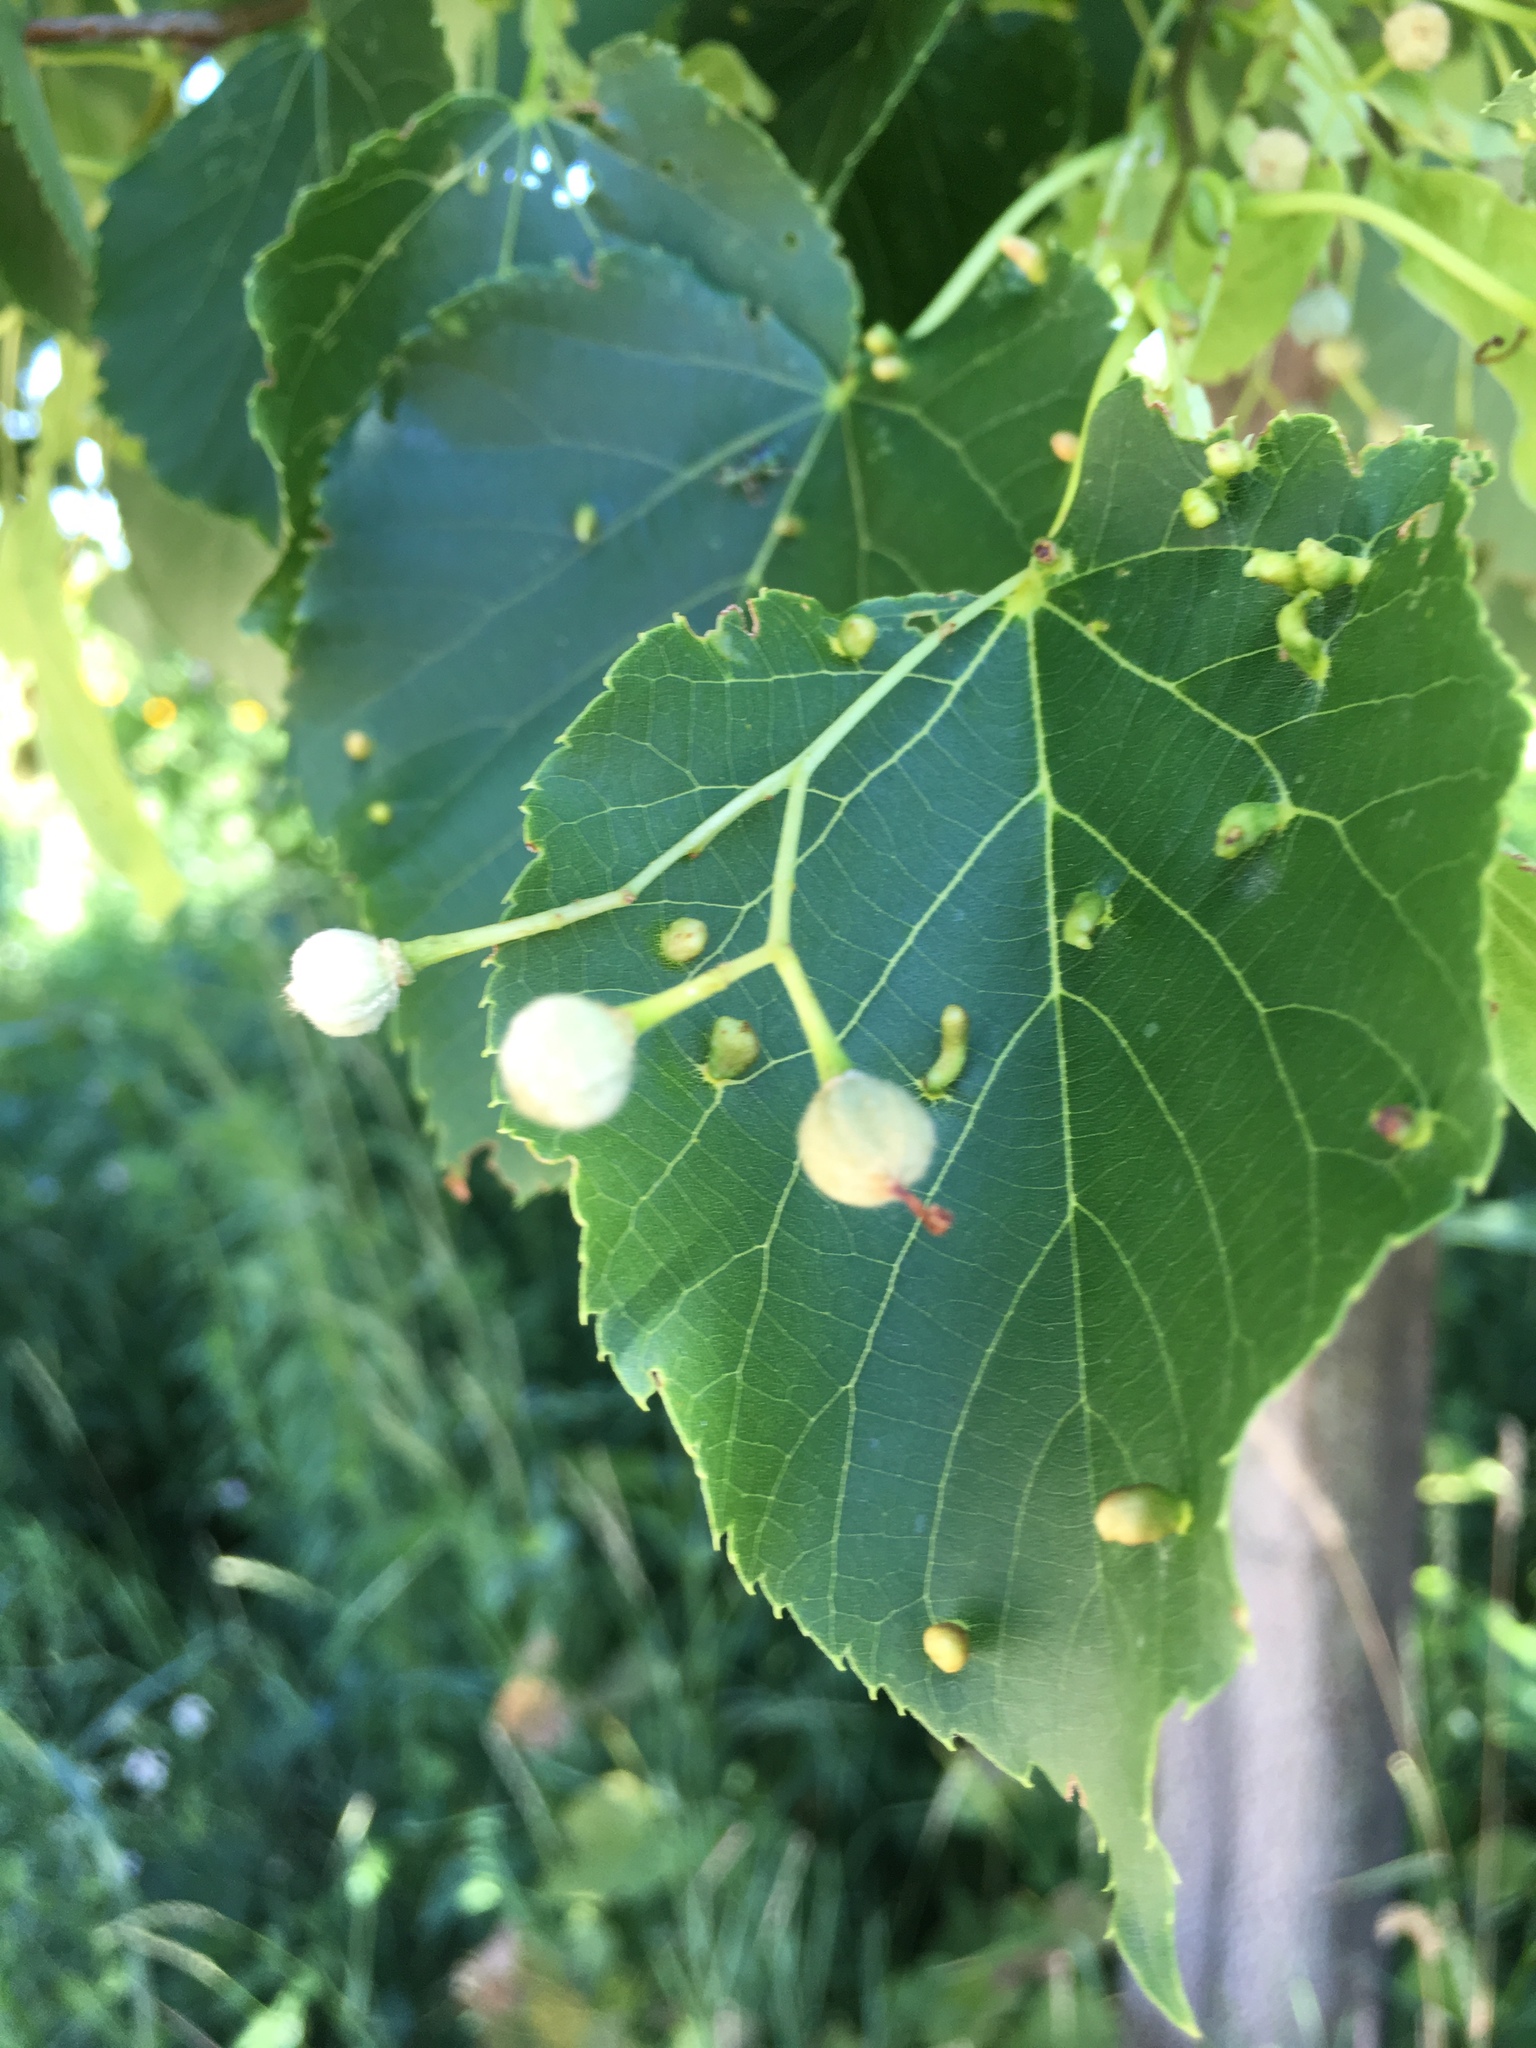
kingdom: Animalia
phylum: Arthropoda
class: Arachnida
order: Trombidiformes
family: Eriophyidae
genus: Eriophyes
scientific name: Eriophyes tiliae
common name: Red nail gall mite
